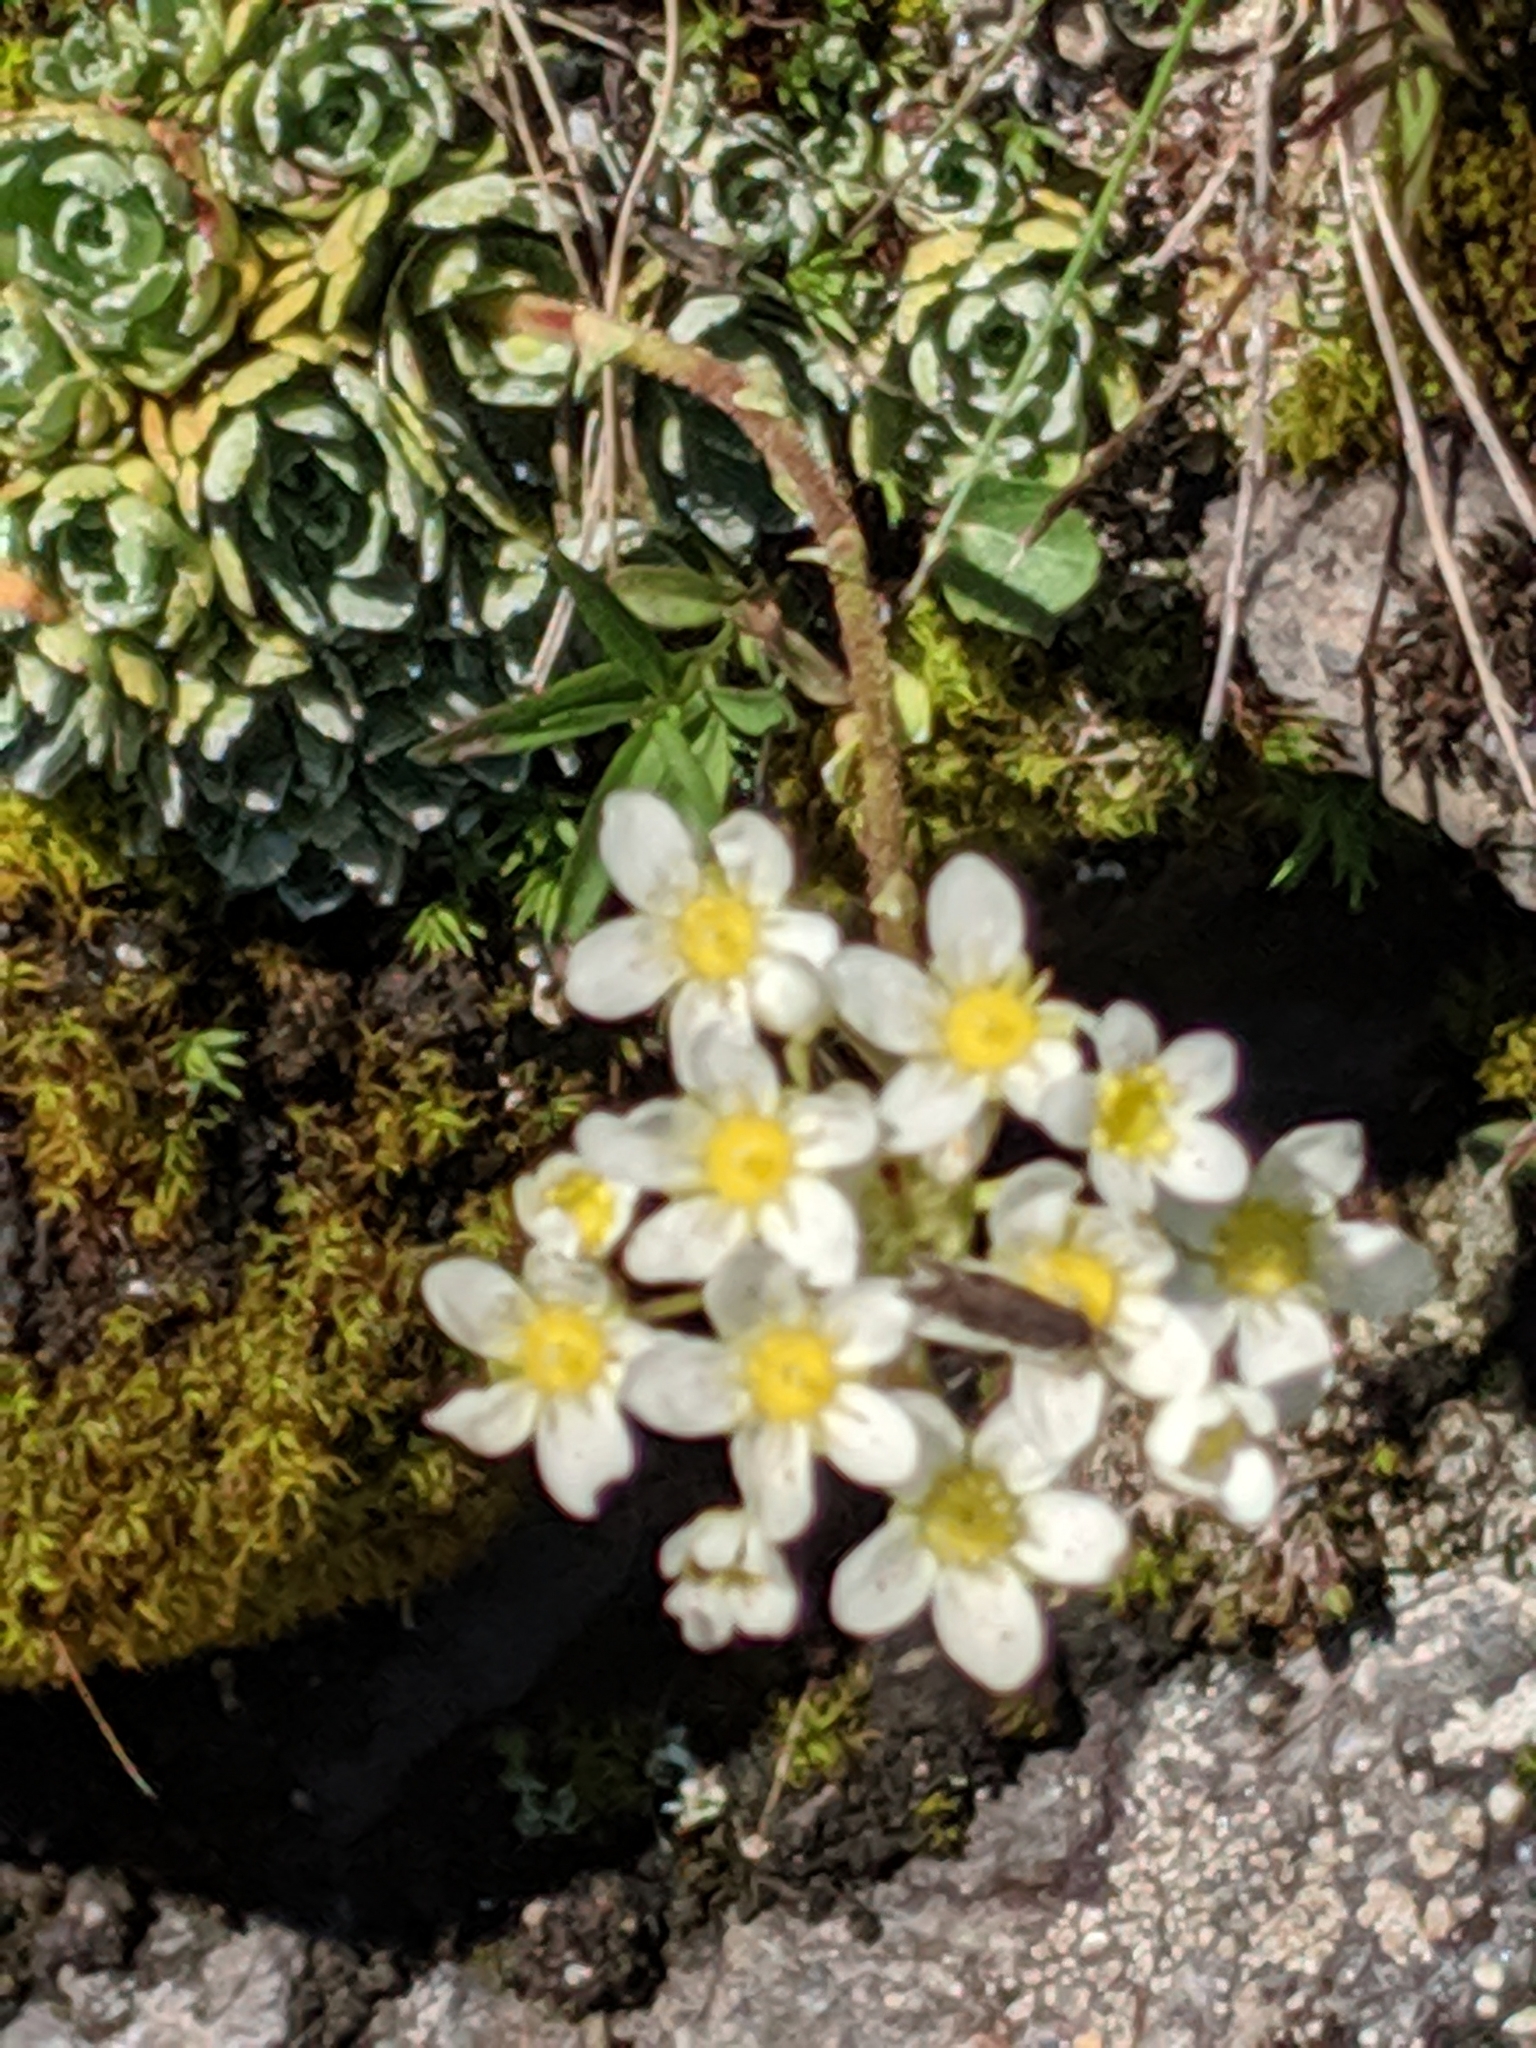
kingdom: Plantae
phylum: Tracheophyta
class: Magnoliopsida
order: Saxifragales
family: Saxifragaceae
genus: Saxifraga
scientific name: Saxifraga paniculata
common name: Livelong saxifrage
